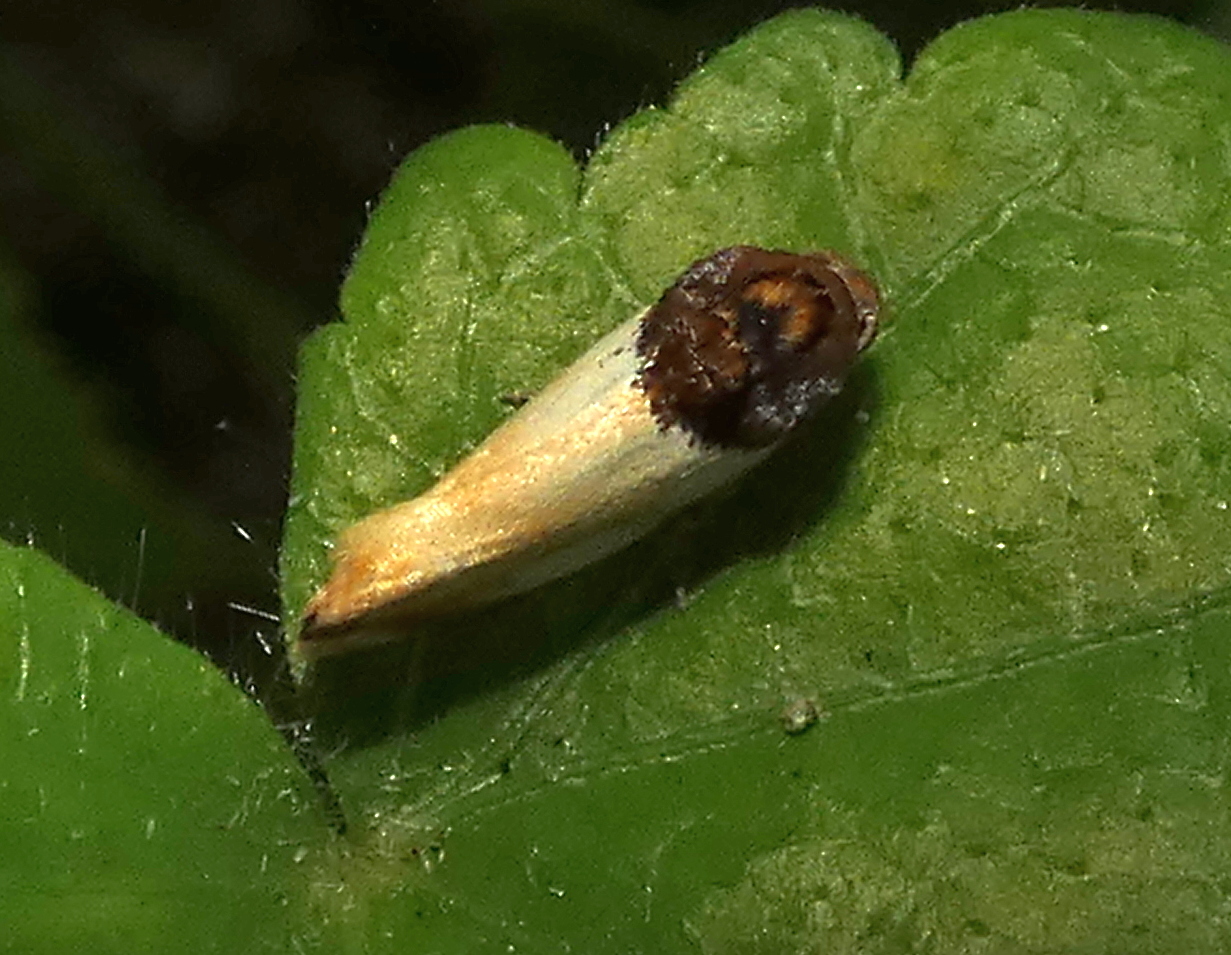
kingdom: Animalia
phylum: Arthropoda
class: Insecta
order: Lepidoptera
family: Noctuidae
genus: Spragueia
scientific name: Spragueia apicalis
